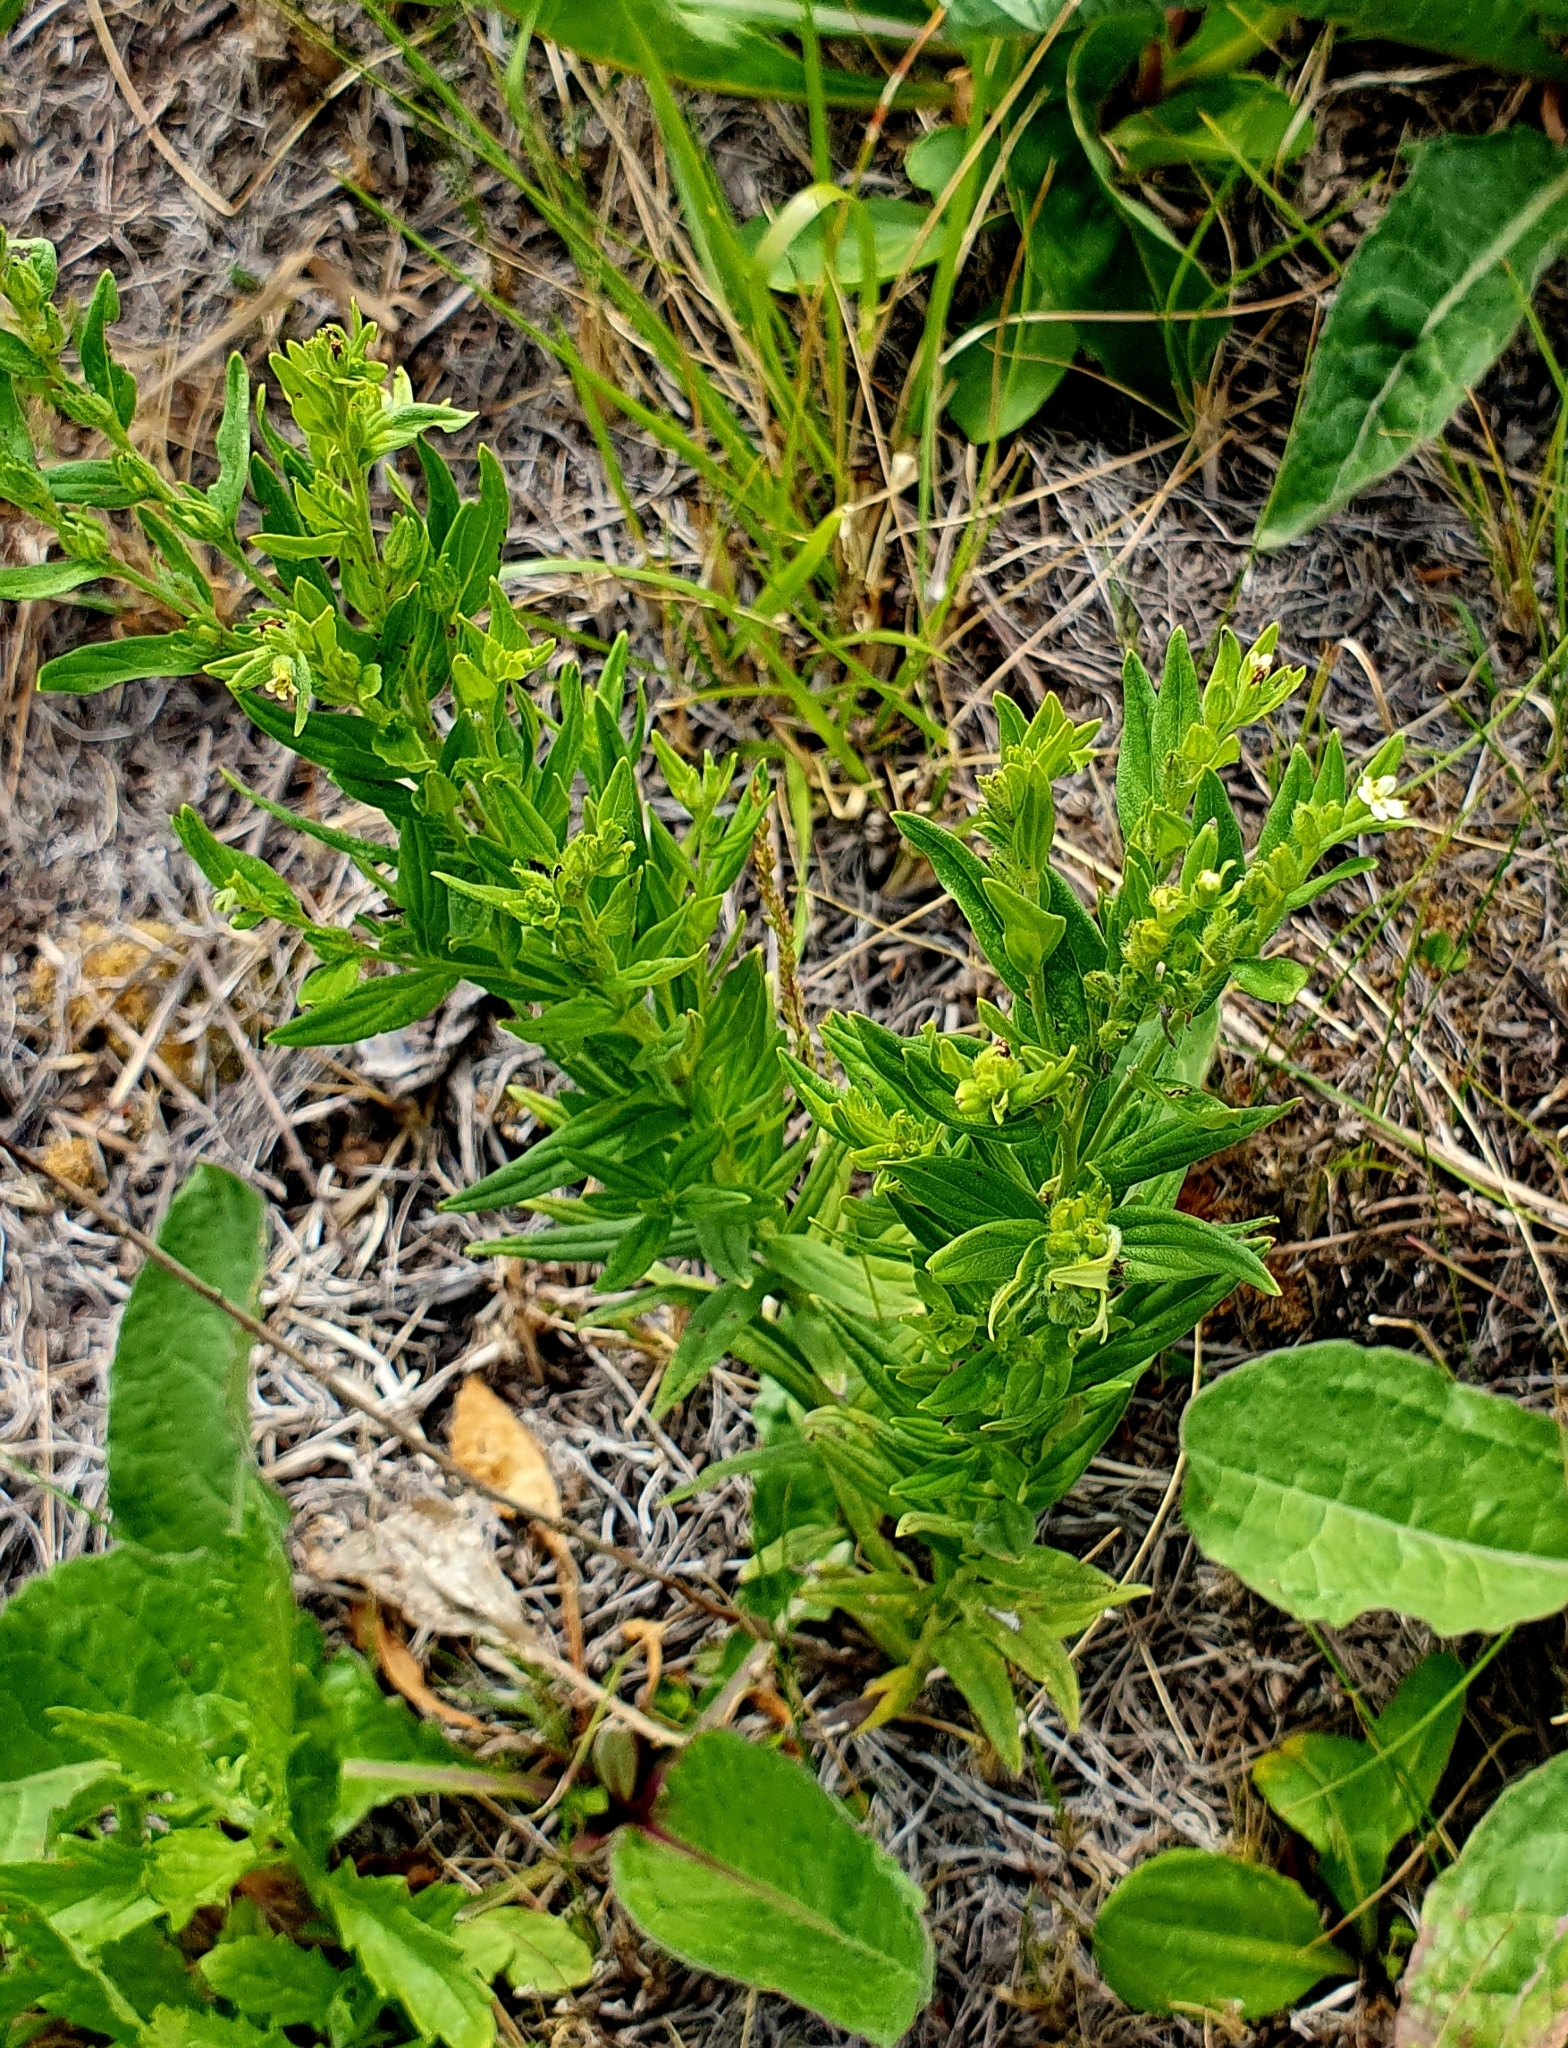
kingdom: Plantae
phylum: Tracheophyta
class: Magnoliopsida
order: Boraginales
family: Boraginaceae
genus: Lithospermum
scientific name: Lithospermum officinale
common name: Common gromwell
